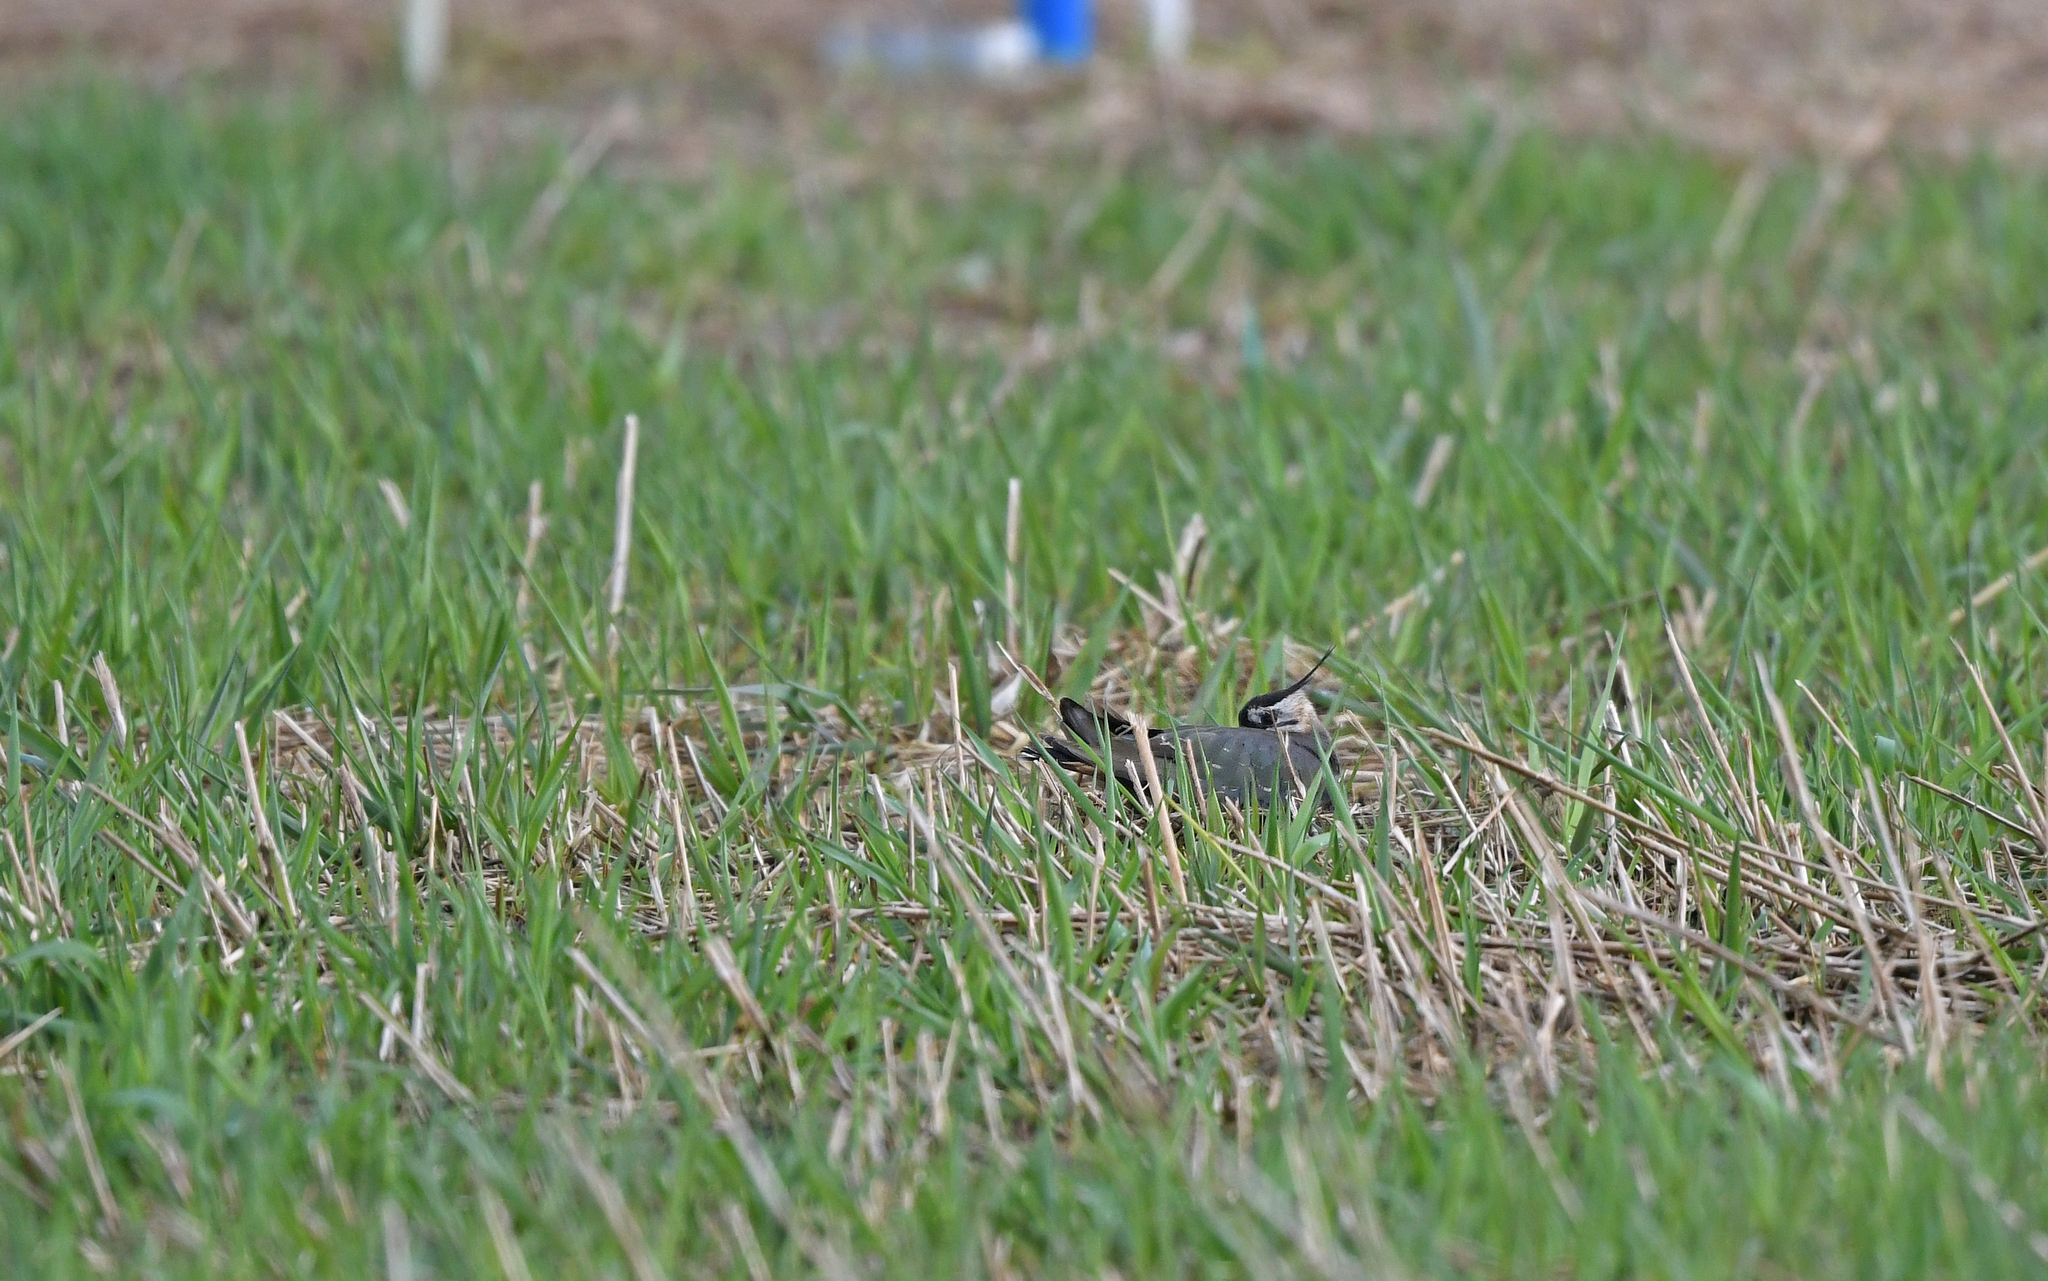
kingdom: Animalia
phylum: Chordata
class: Aves
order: Charadriiformes
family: Charadriidae
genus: Vanellus
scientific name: Vanellus vanellus
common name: Northern lapwing
